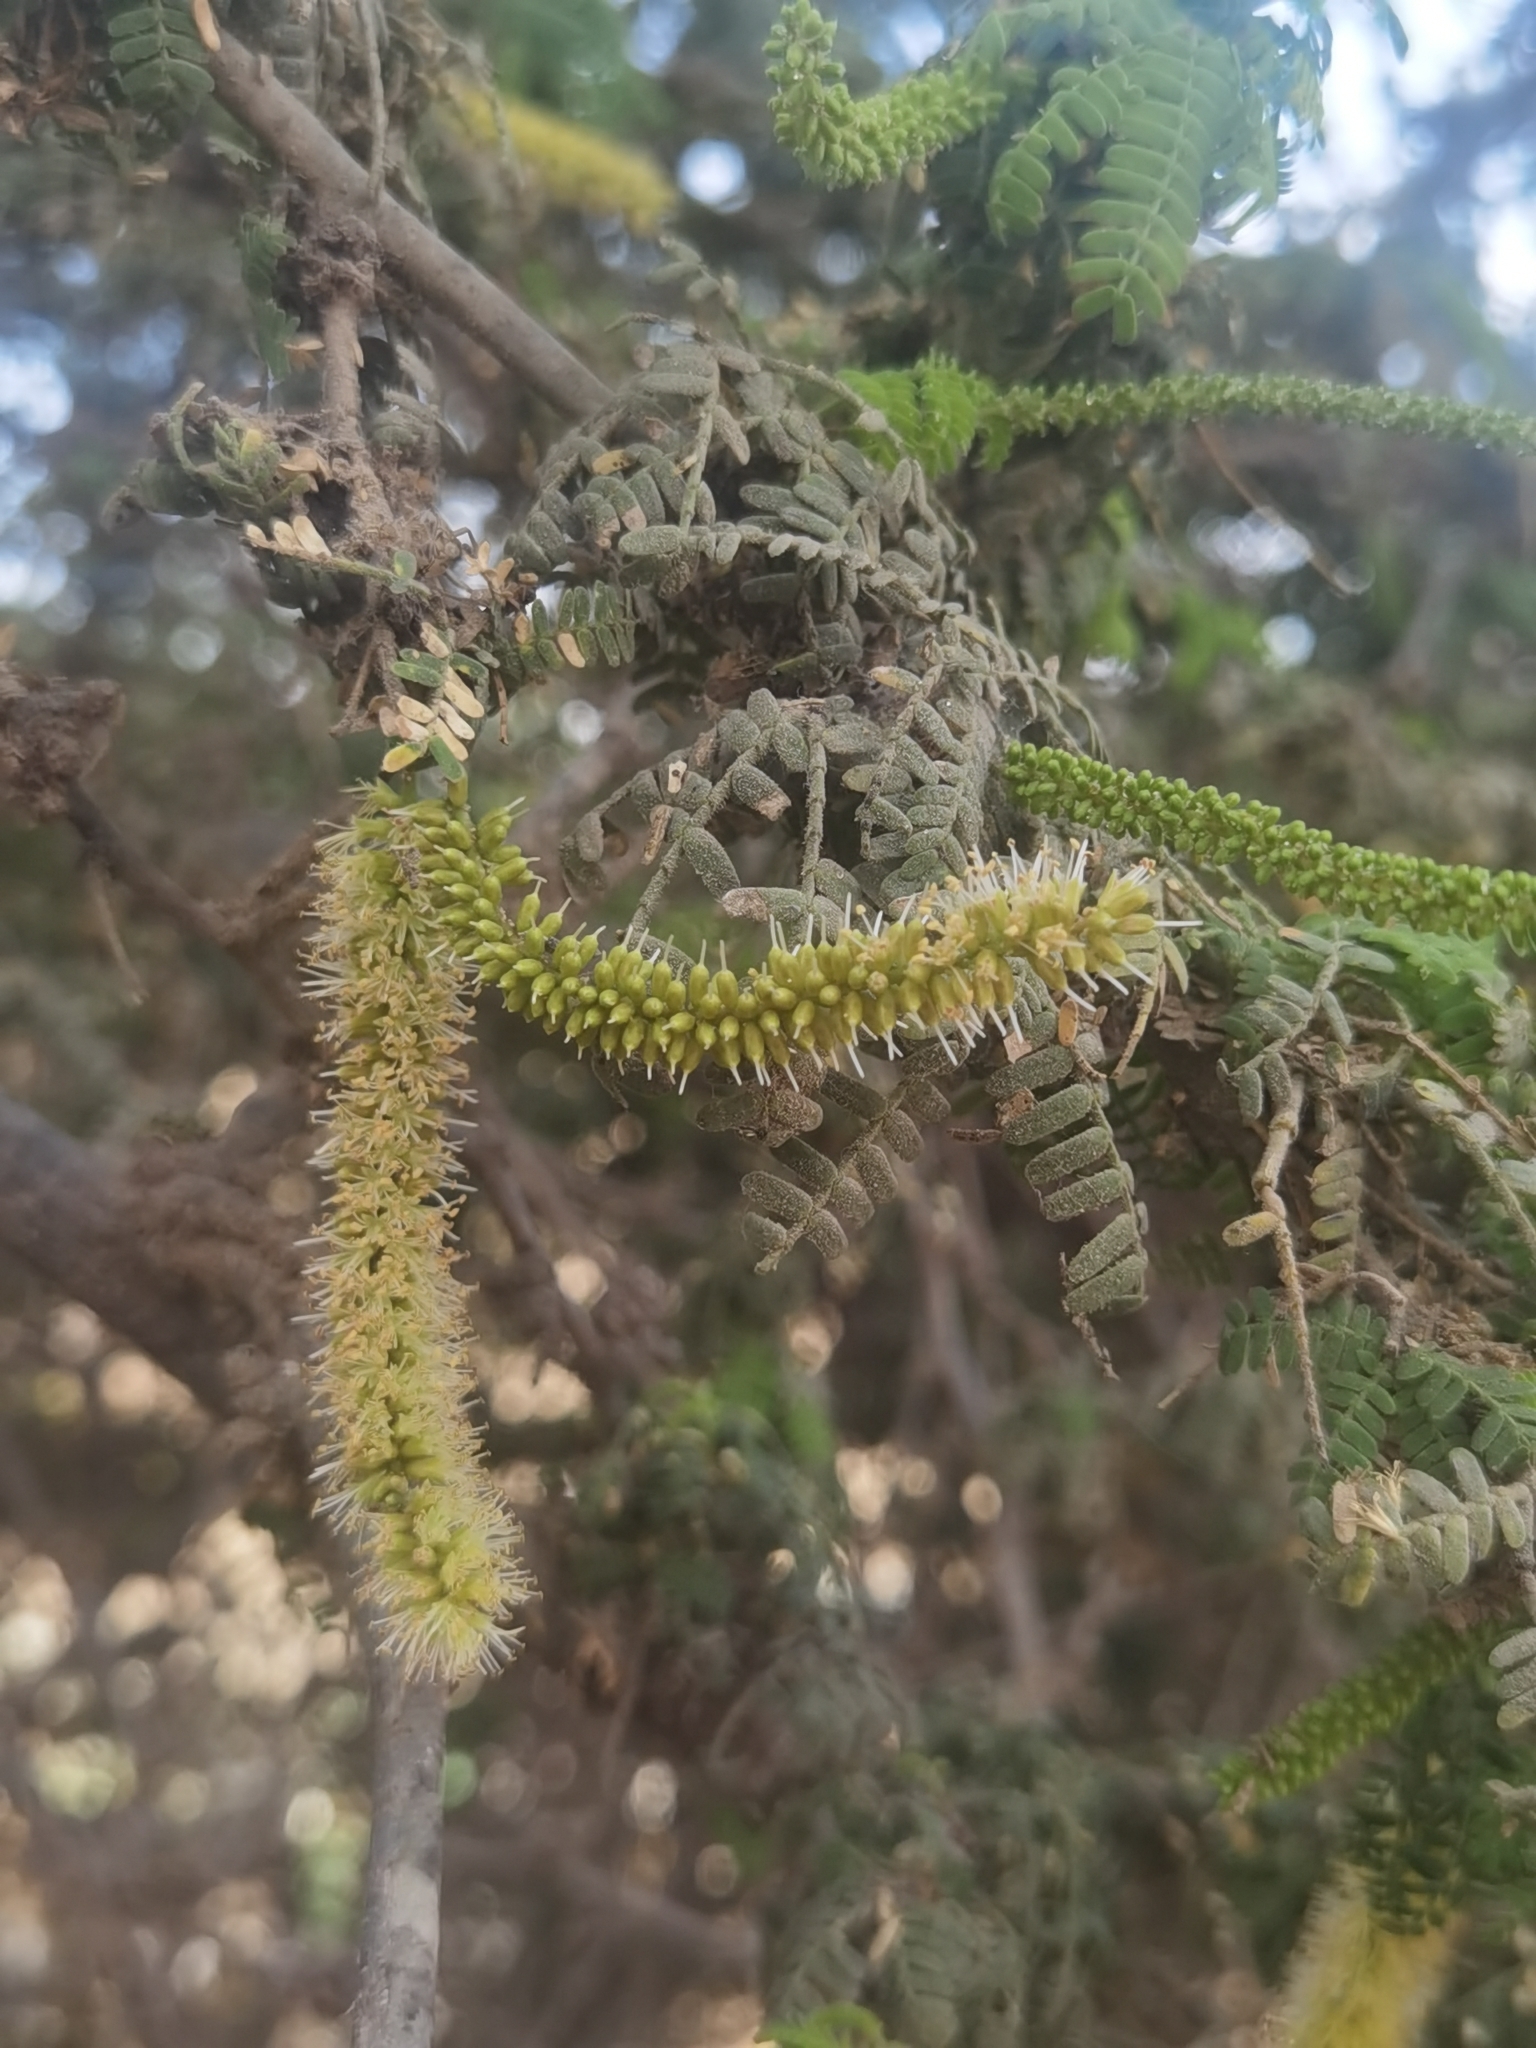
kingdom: Plantae
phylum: Tracheophyta
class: Magnoliopsida
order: Fabales
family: Fabaceae
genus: Prosopis
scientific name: Prosopis limensis
